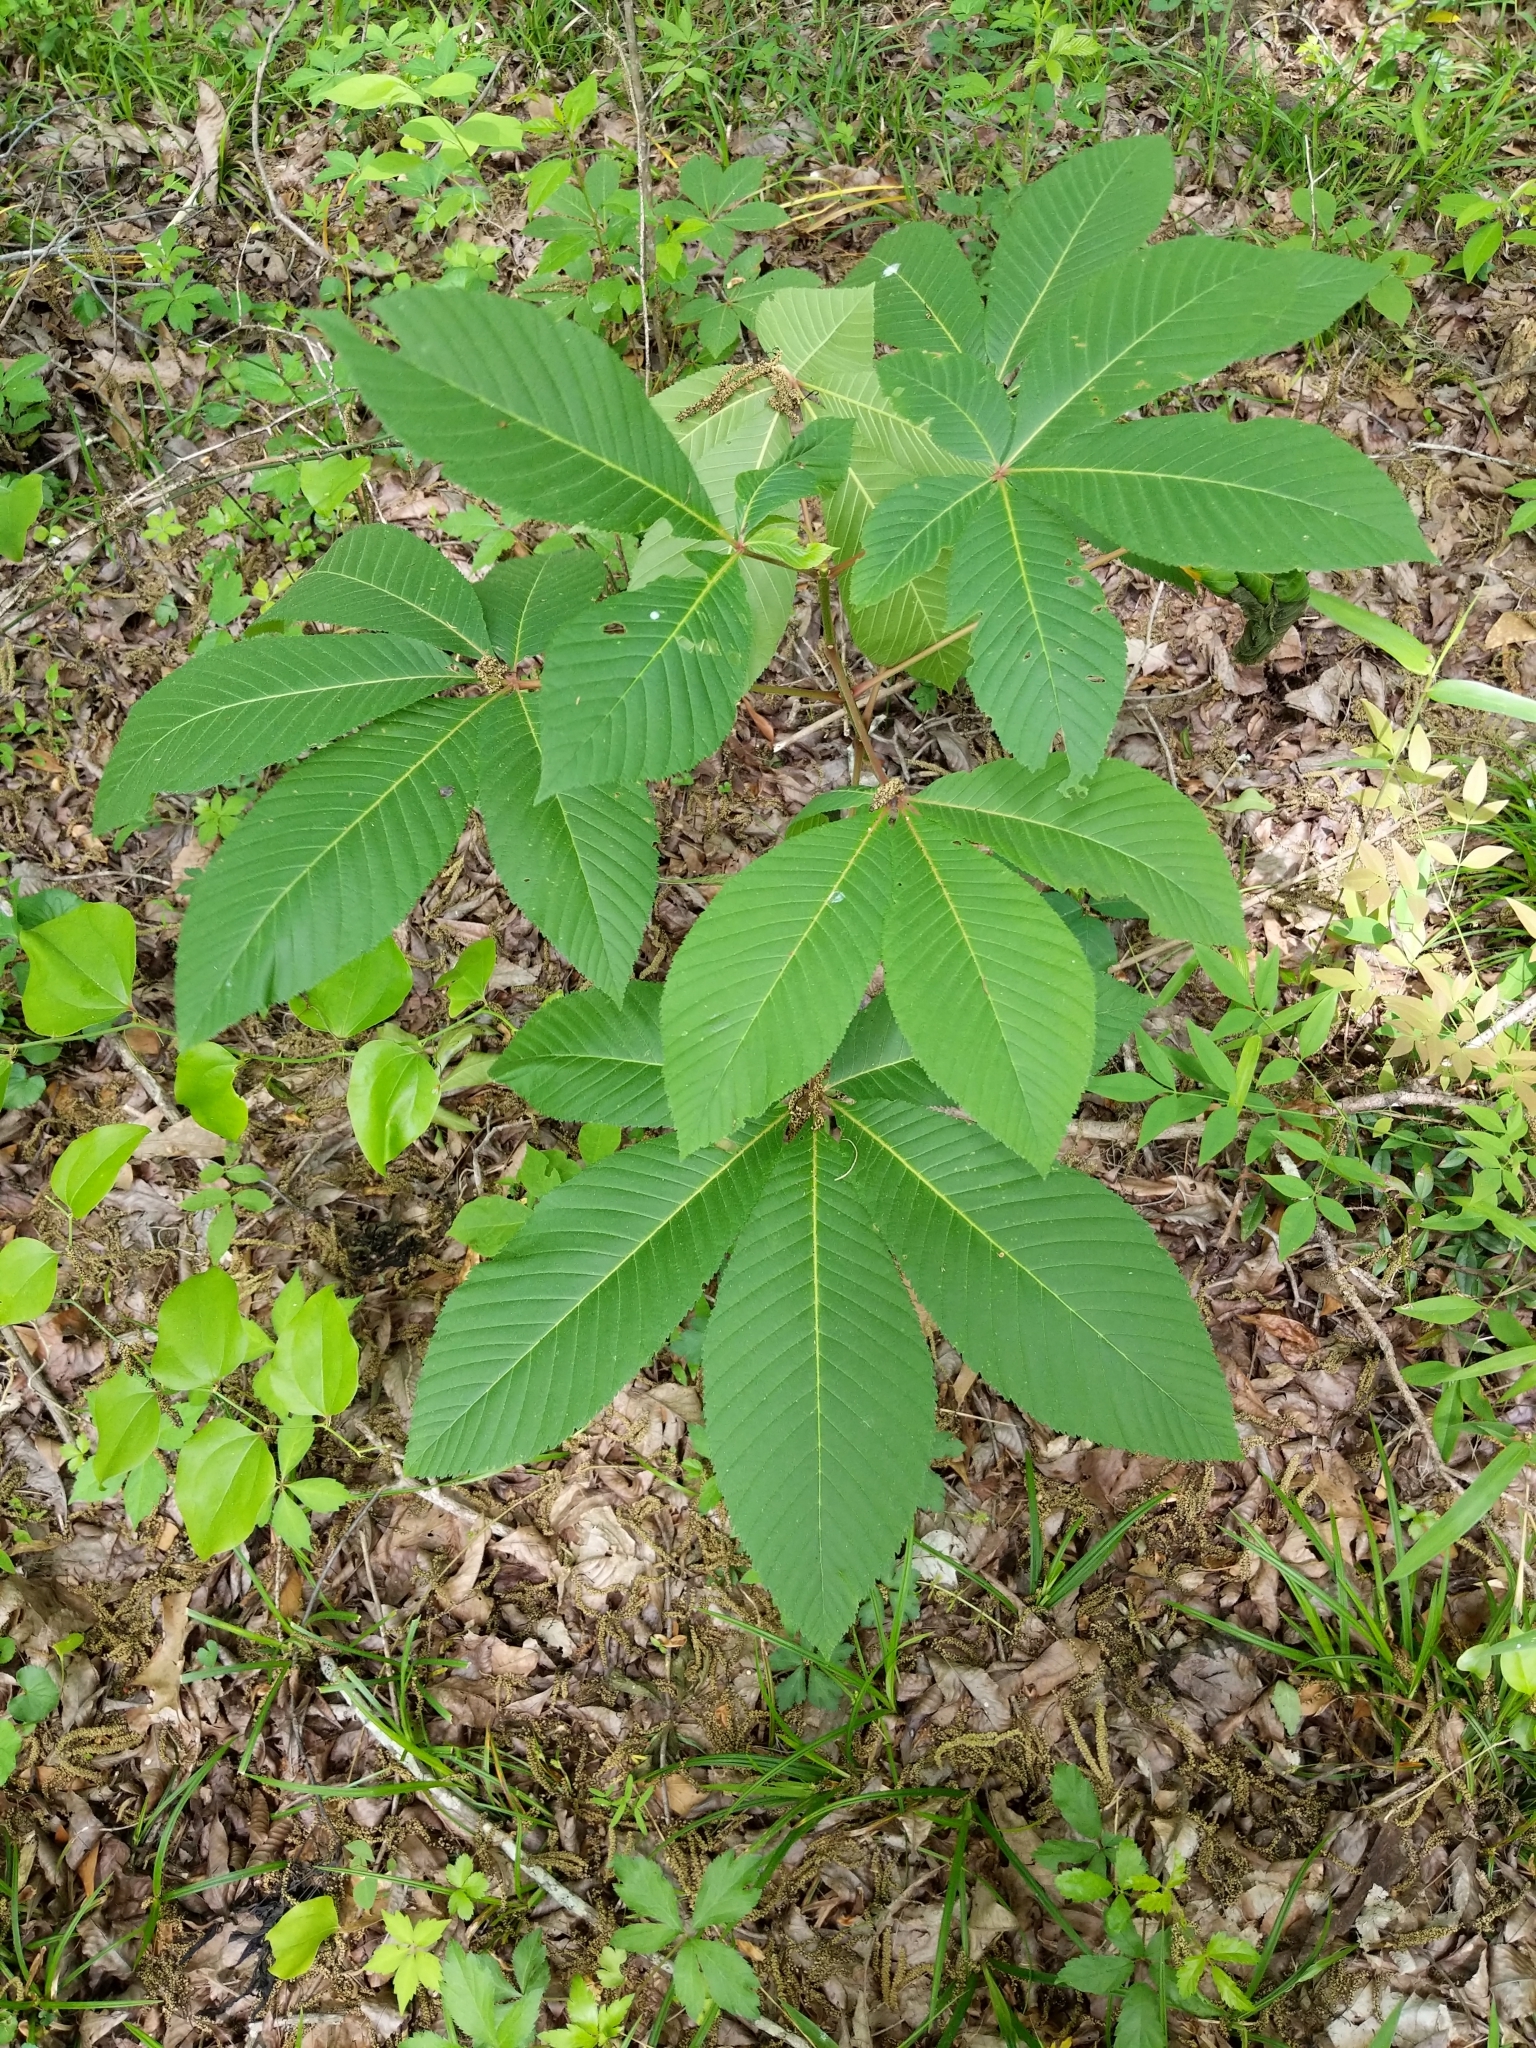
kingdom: Plantae
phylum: Tracheophyta
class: Magnoliopsida
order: Sapindales
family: Sapindaceae
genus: Aesculus
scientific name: Aesculus pavia
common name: Red buckeye
